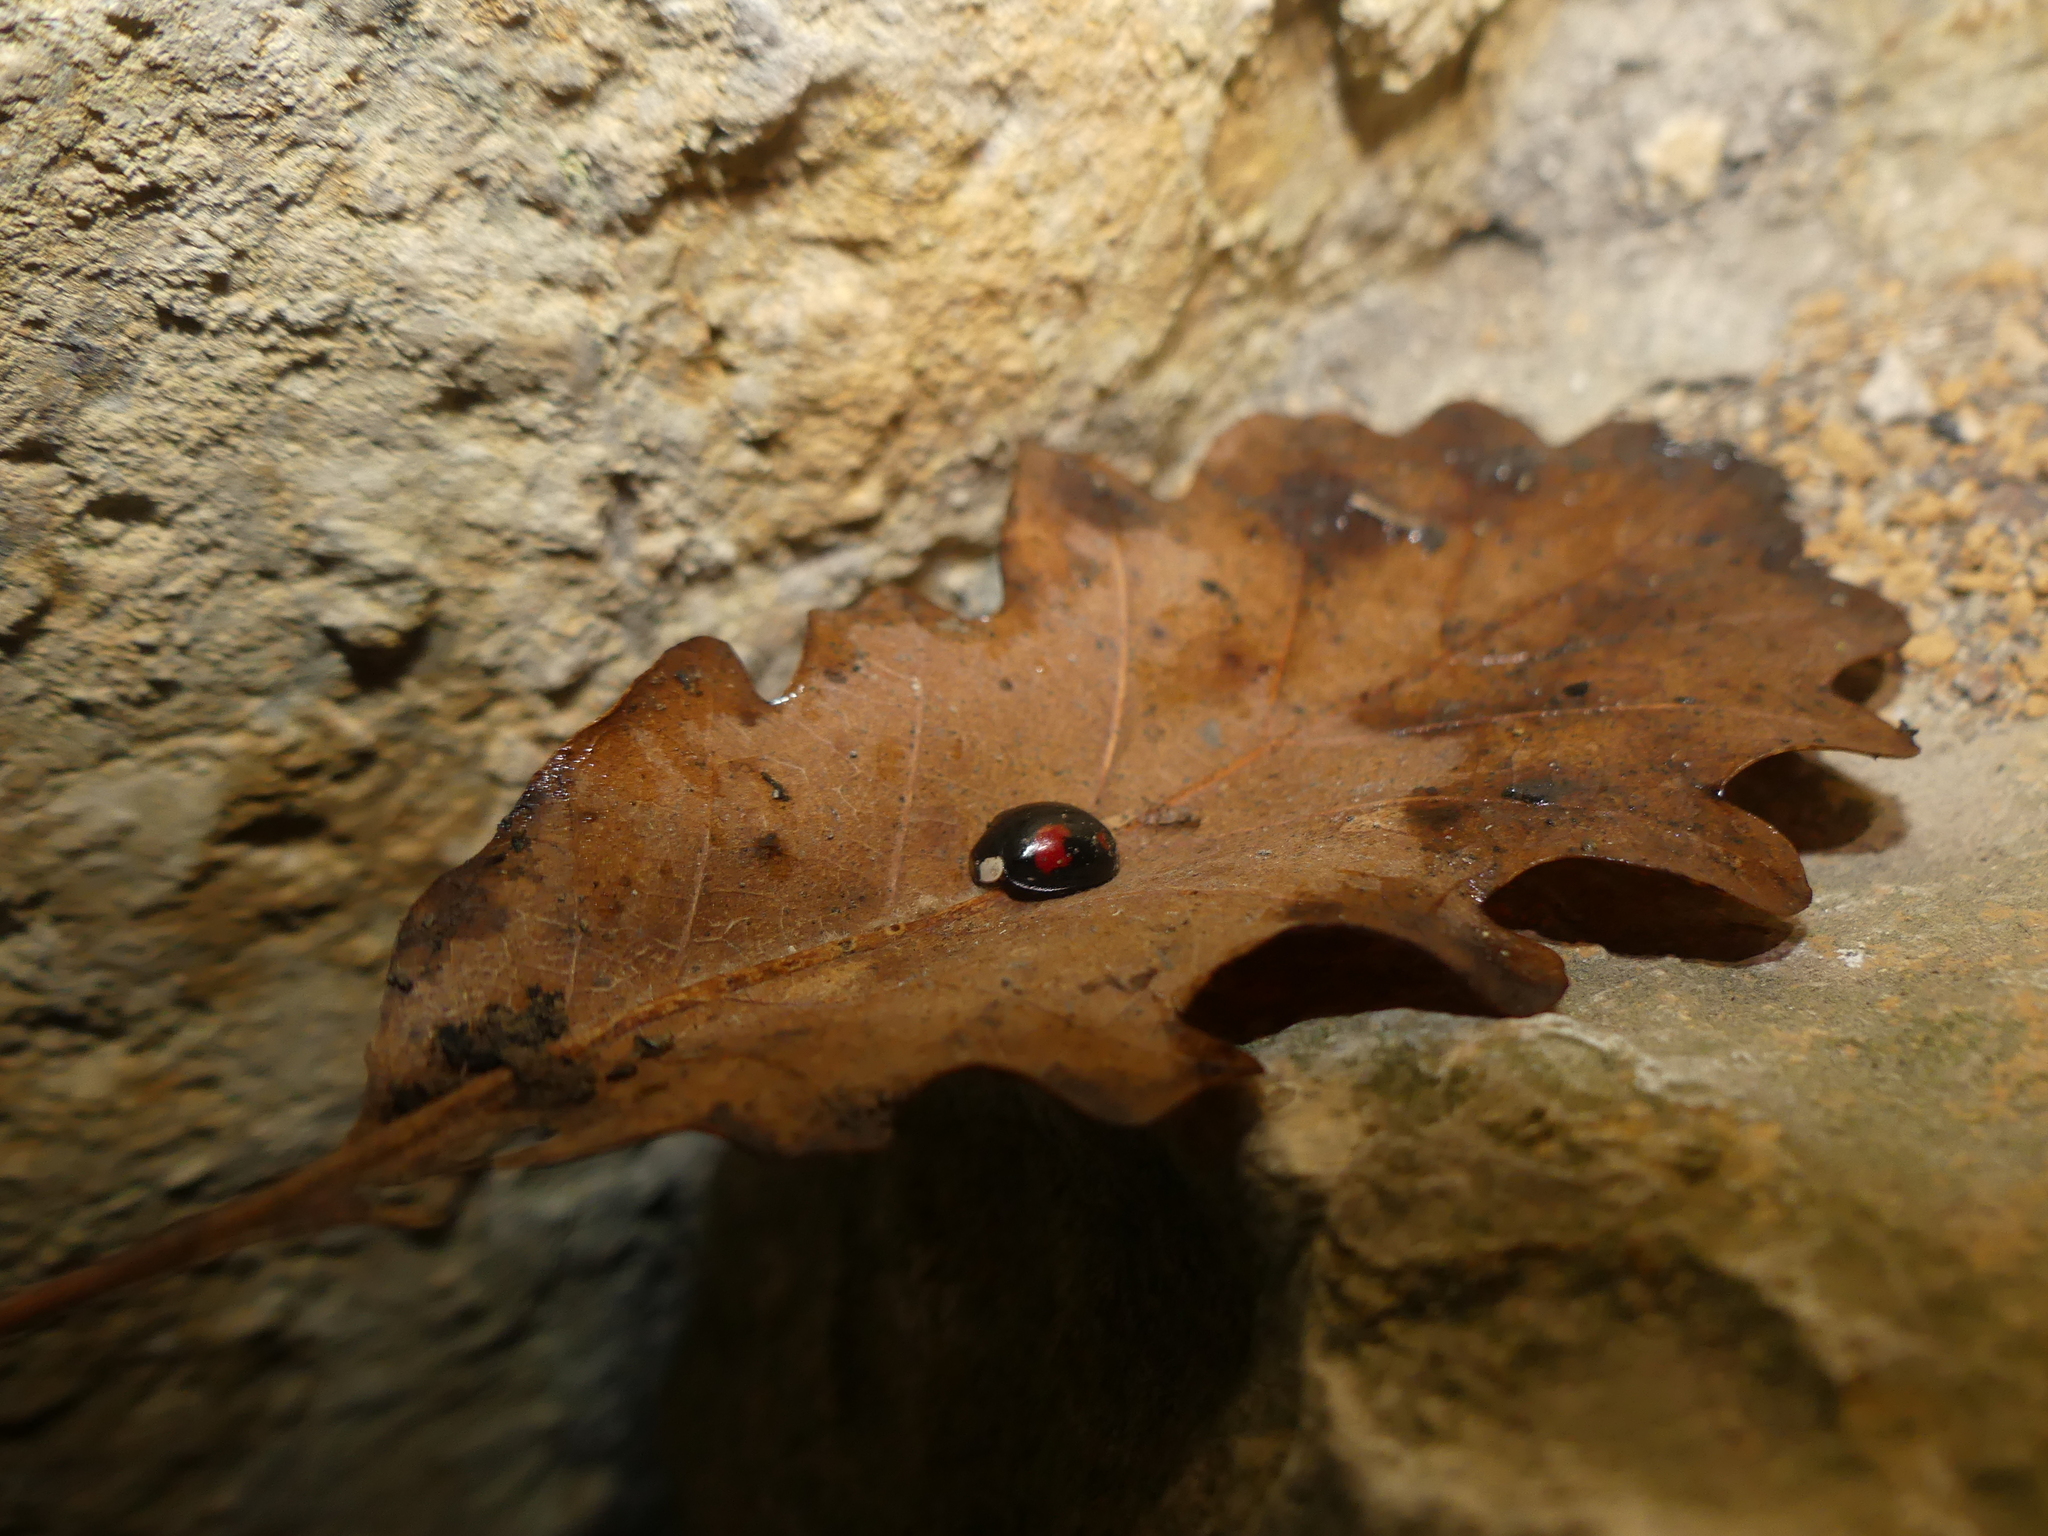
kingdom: Animalia
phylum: Arthropoda
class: Insecta
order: Coleoptera
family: Coccinellidae
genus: Harmonia
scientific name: Harmonia axyridis
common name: Harlequin ladybird
